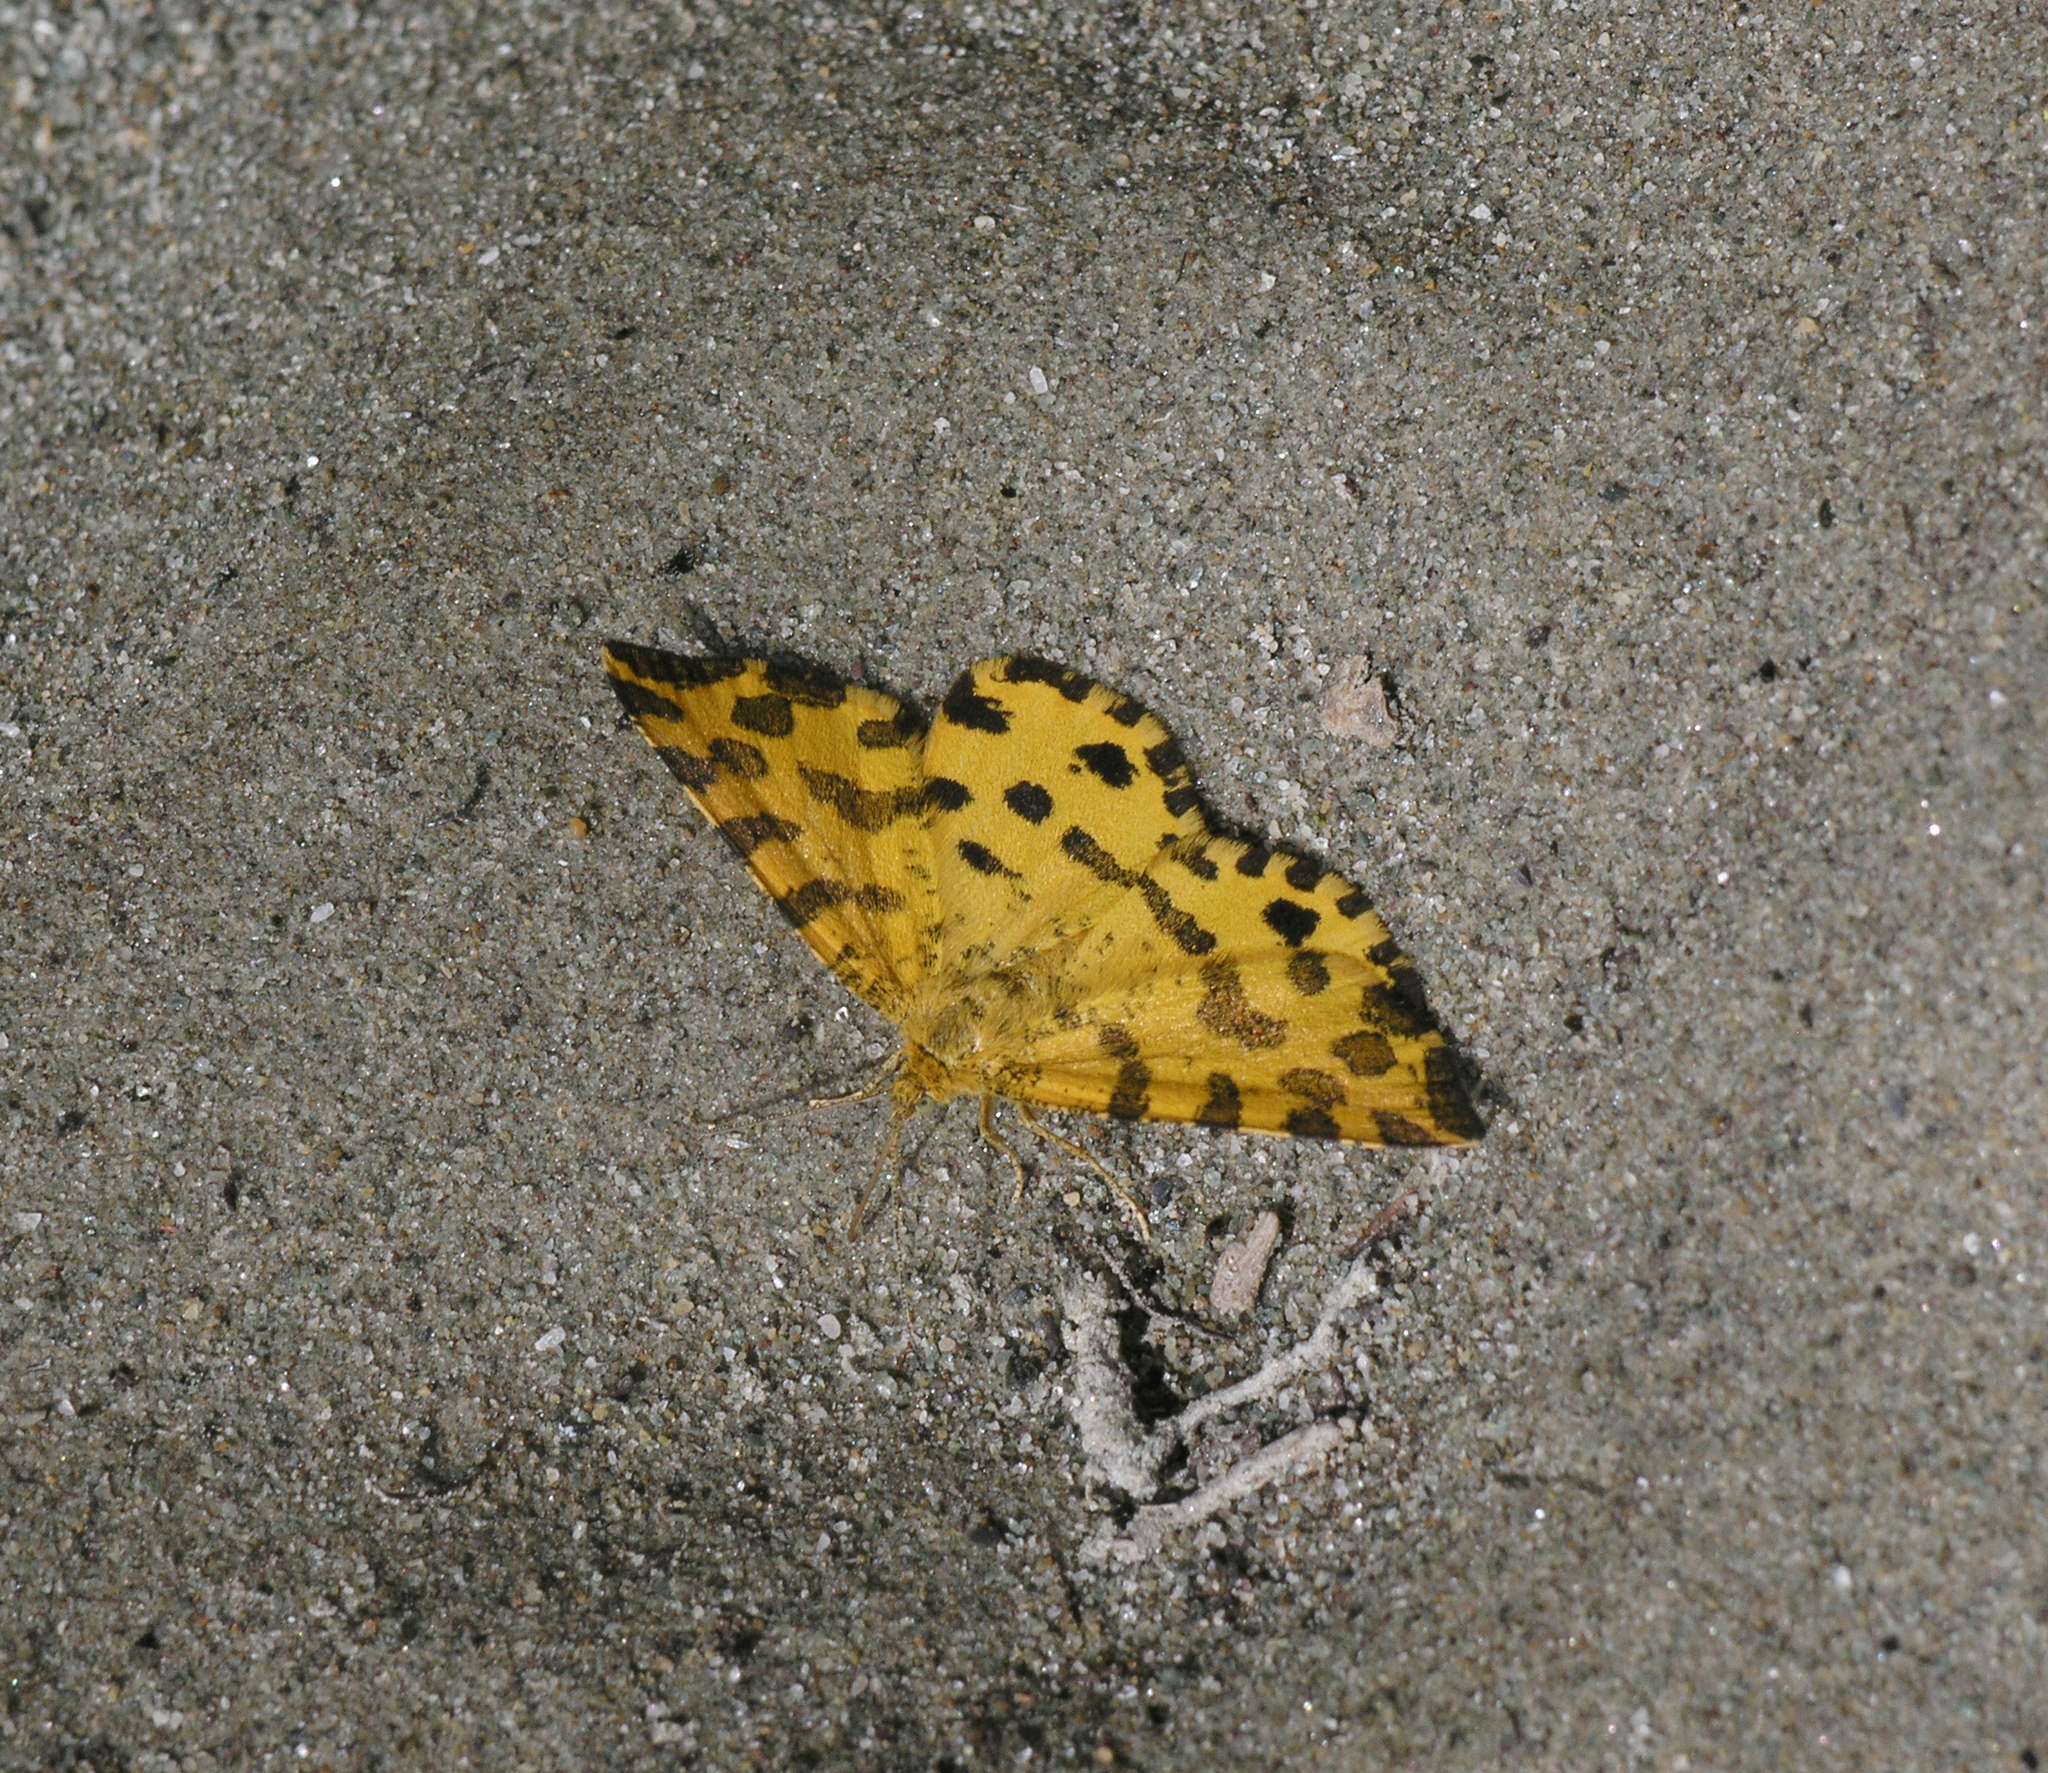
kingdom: Animalia
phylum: Arthropoda
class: Insecta
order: Lepidoptera
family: Geometridae
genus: Pseudopanthera
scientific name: Pseudopanthera macularia
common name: Speckled yellow
